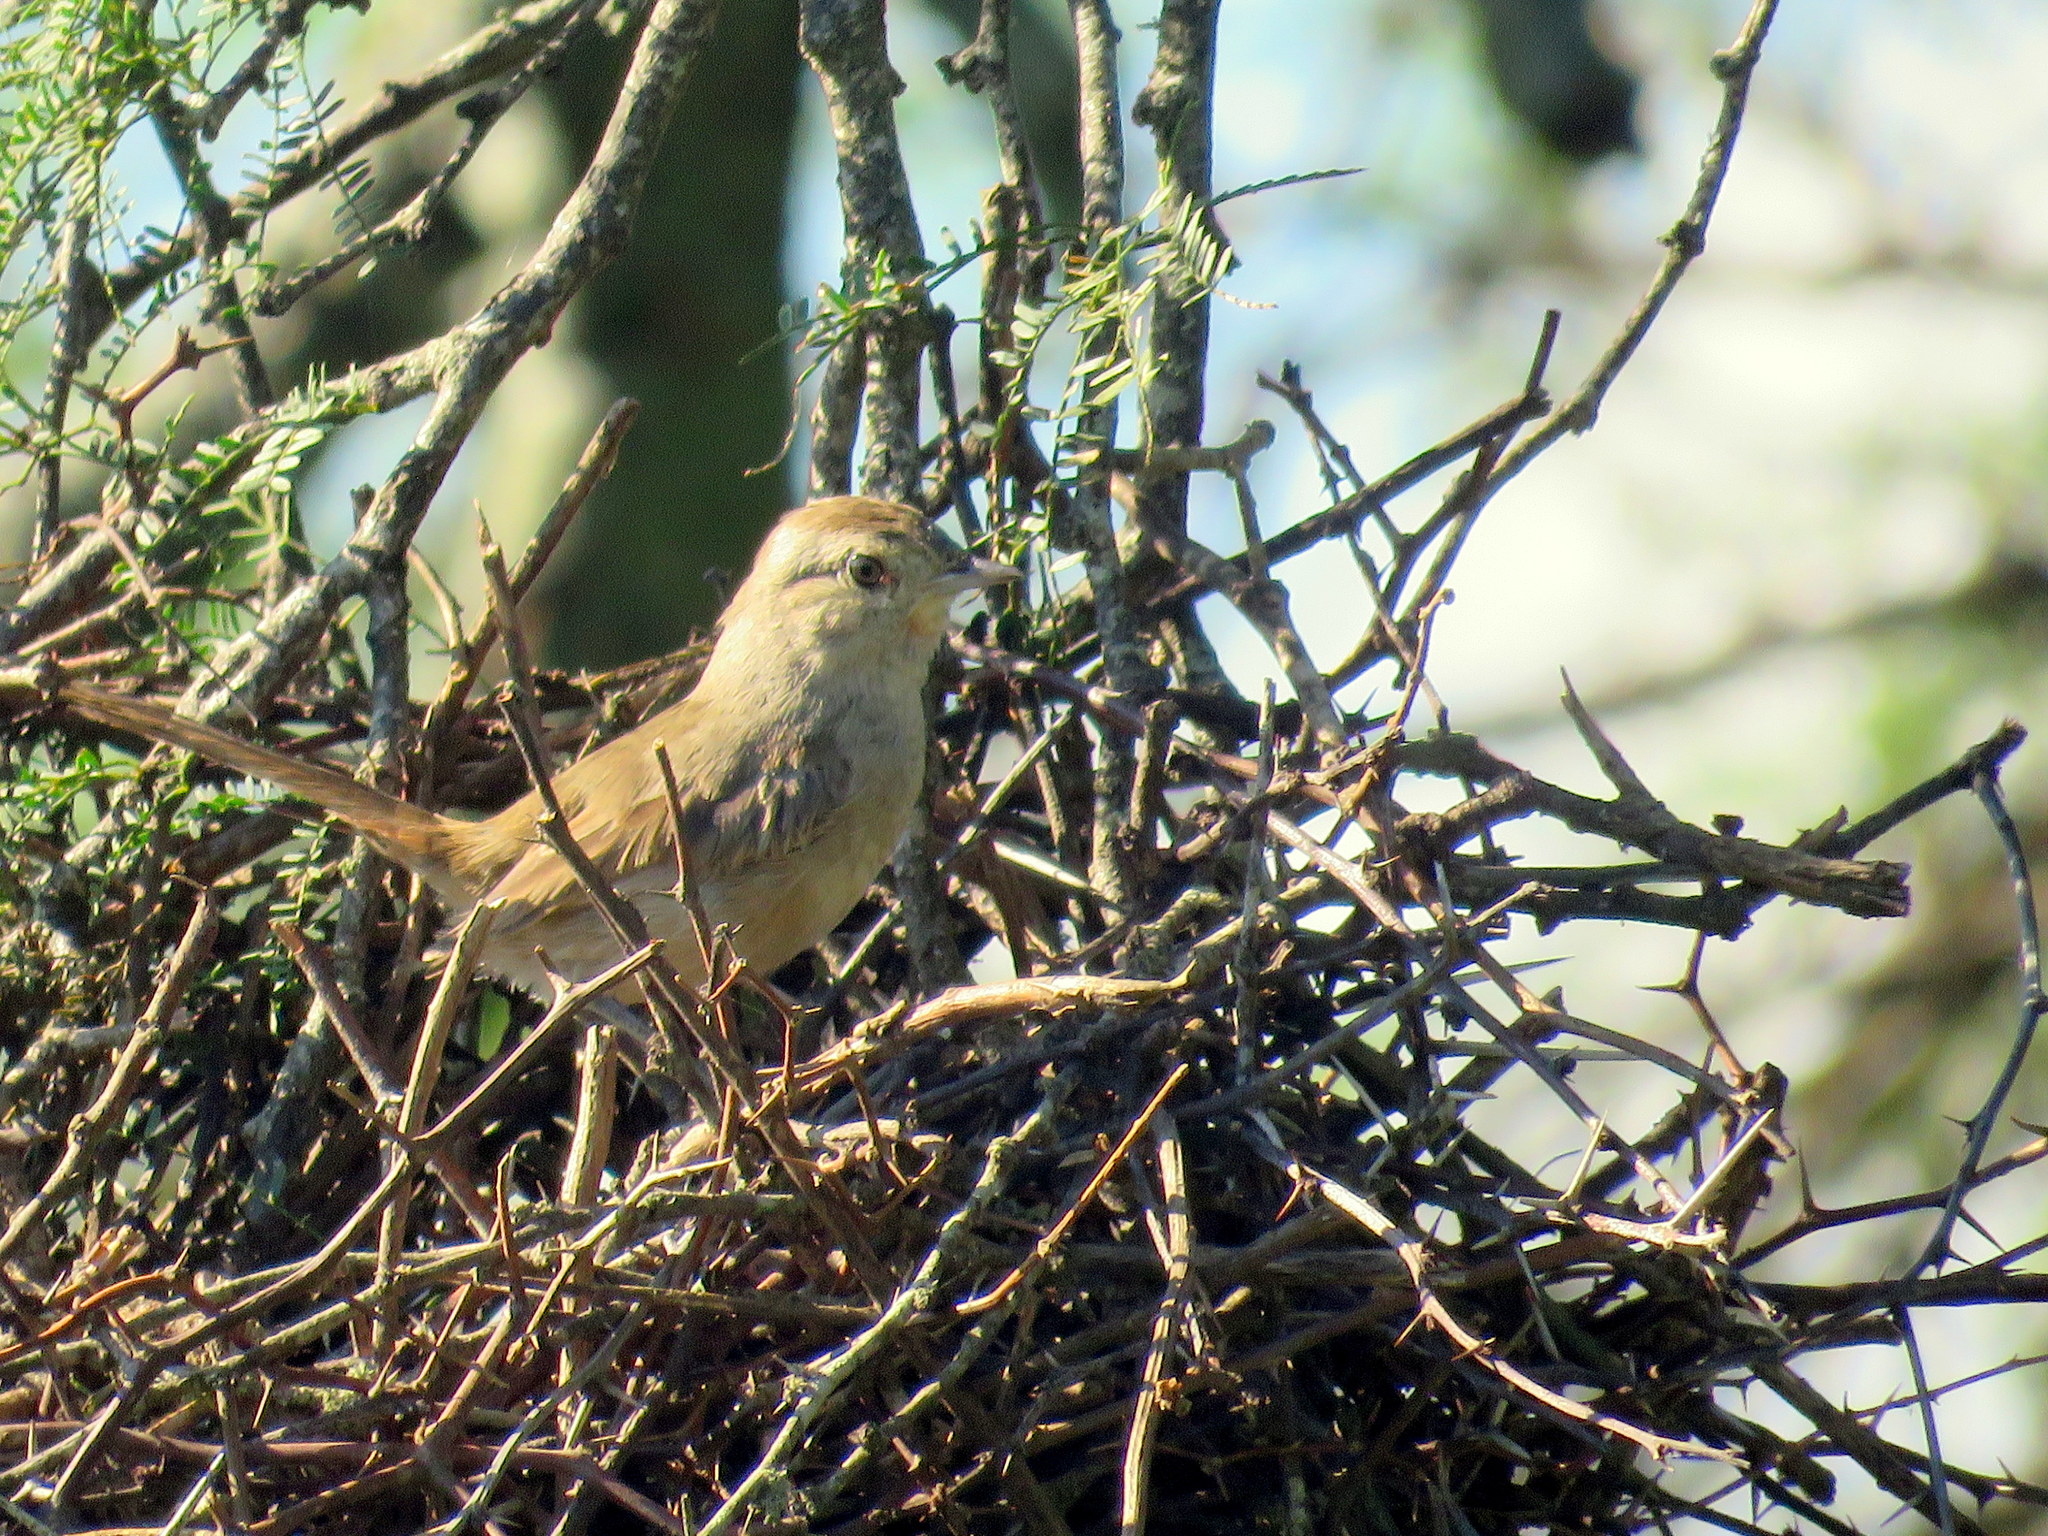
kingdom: Animalia
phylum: Chordata
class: Aves
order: Passeriformes
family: Furnariidae
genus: Asthenes
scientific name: Asthenes baeri
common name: Short-billed canastero
